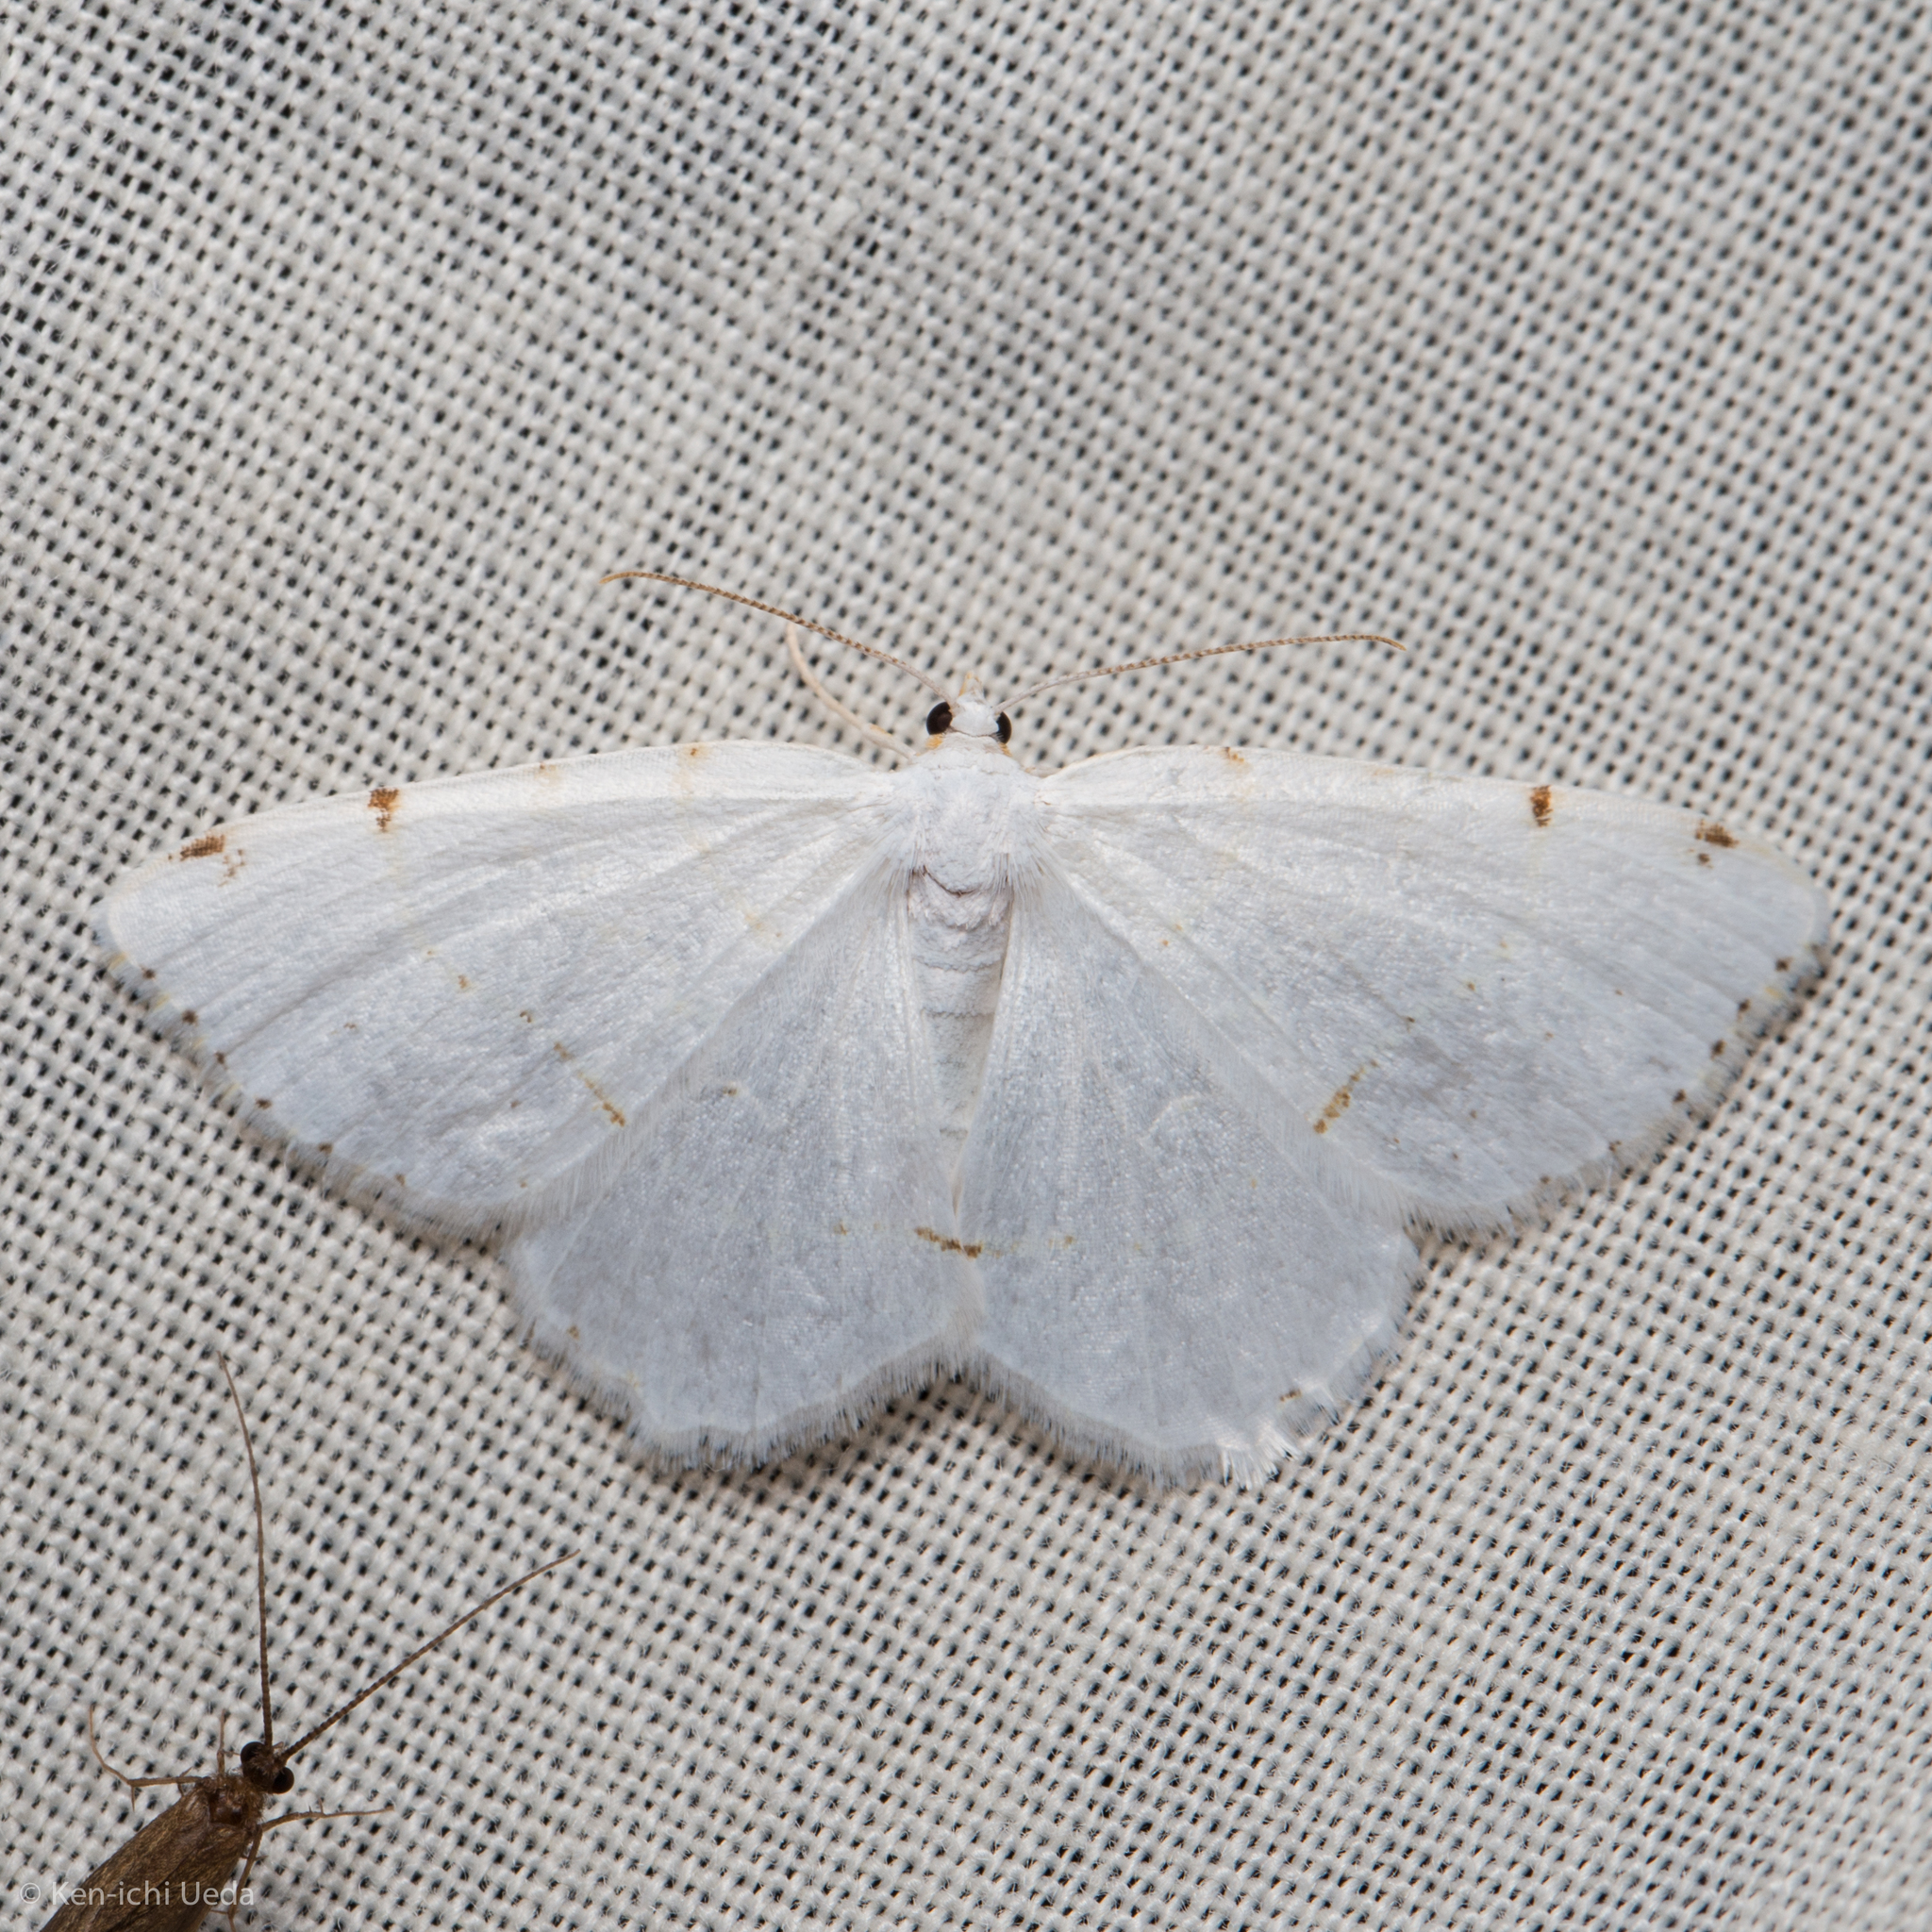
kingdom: Animalia
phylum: Arthropoda
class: Insecta
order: Lepidoptera
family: Geometridae
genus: Macaria
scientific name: Macaria pustularia
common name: Lesser maple spanworm moth
